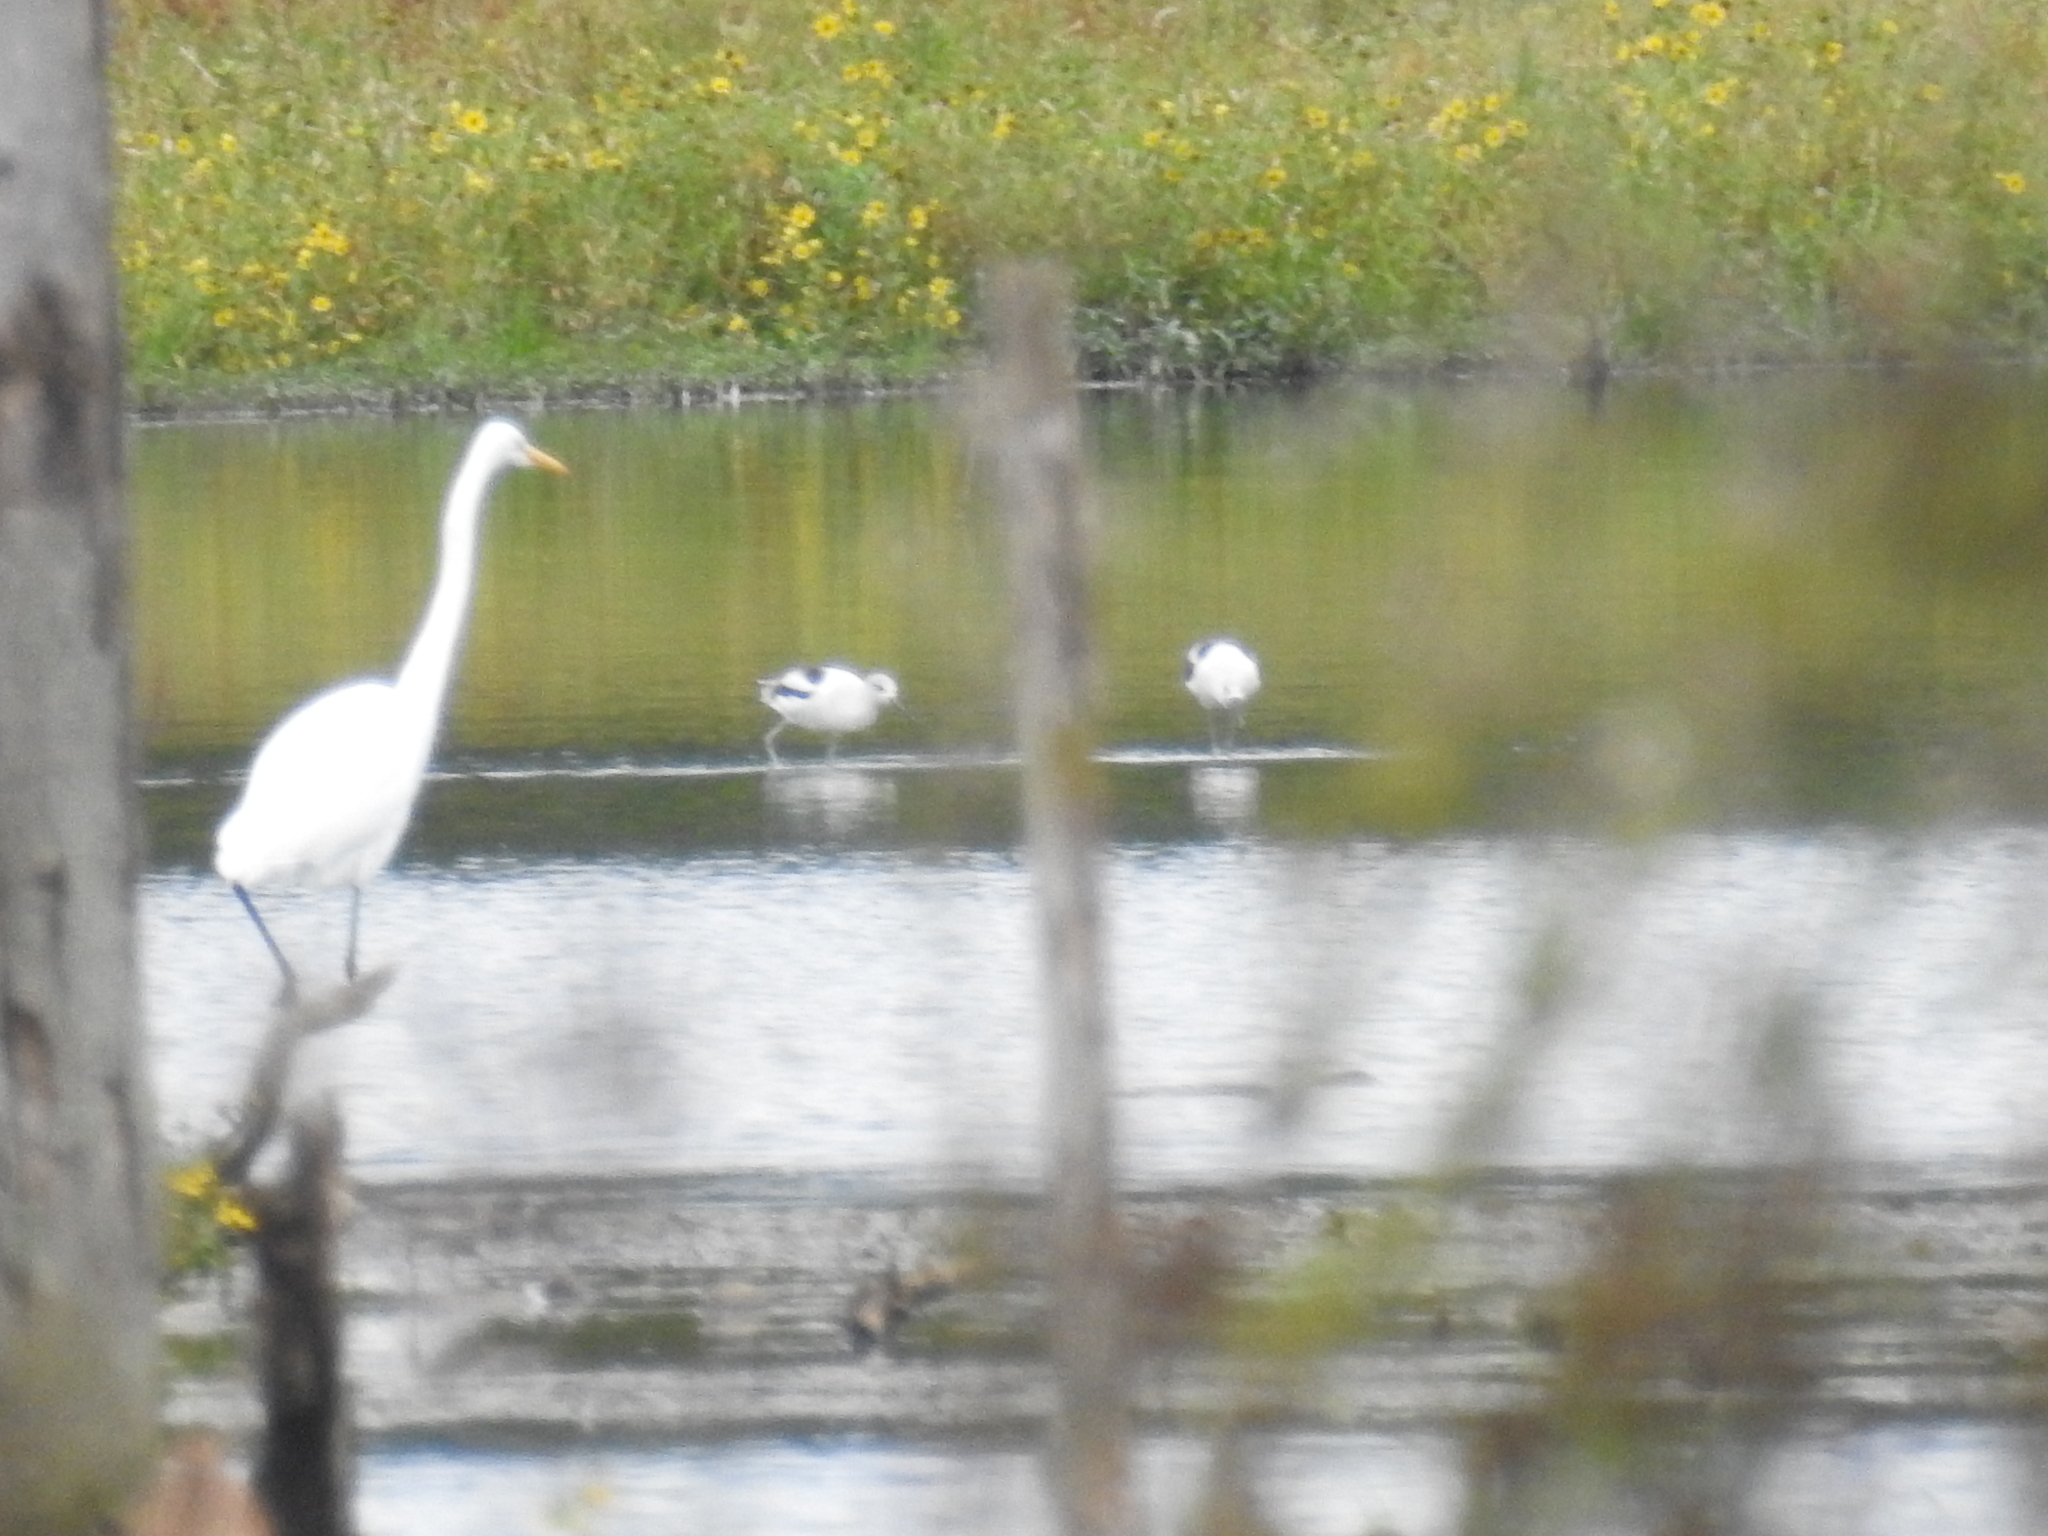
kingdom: Animalia
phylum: Chordata
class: Aves
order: Pelecaniformes
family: Ardeidae
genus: Ardea
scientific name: Ardea alba
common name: Great egret
